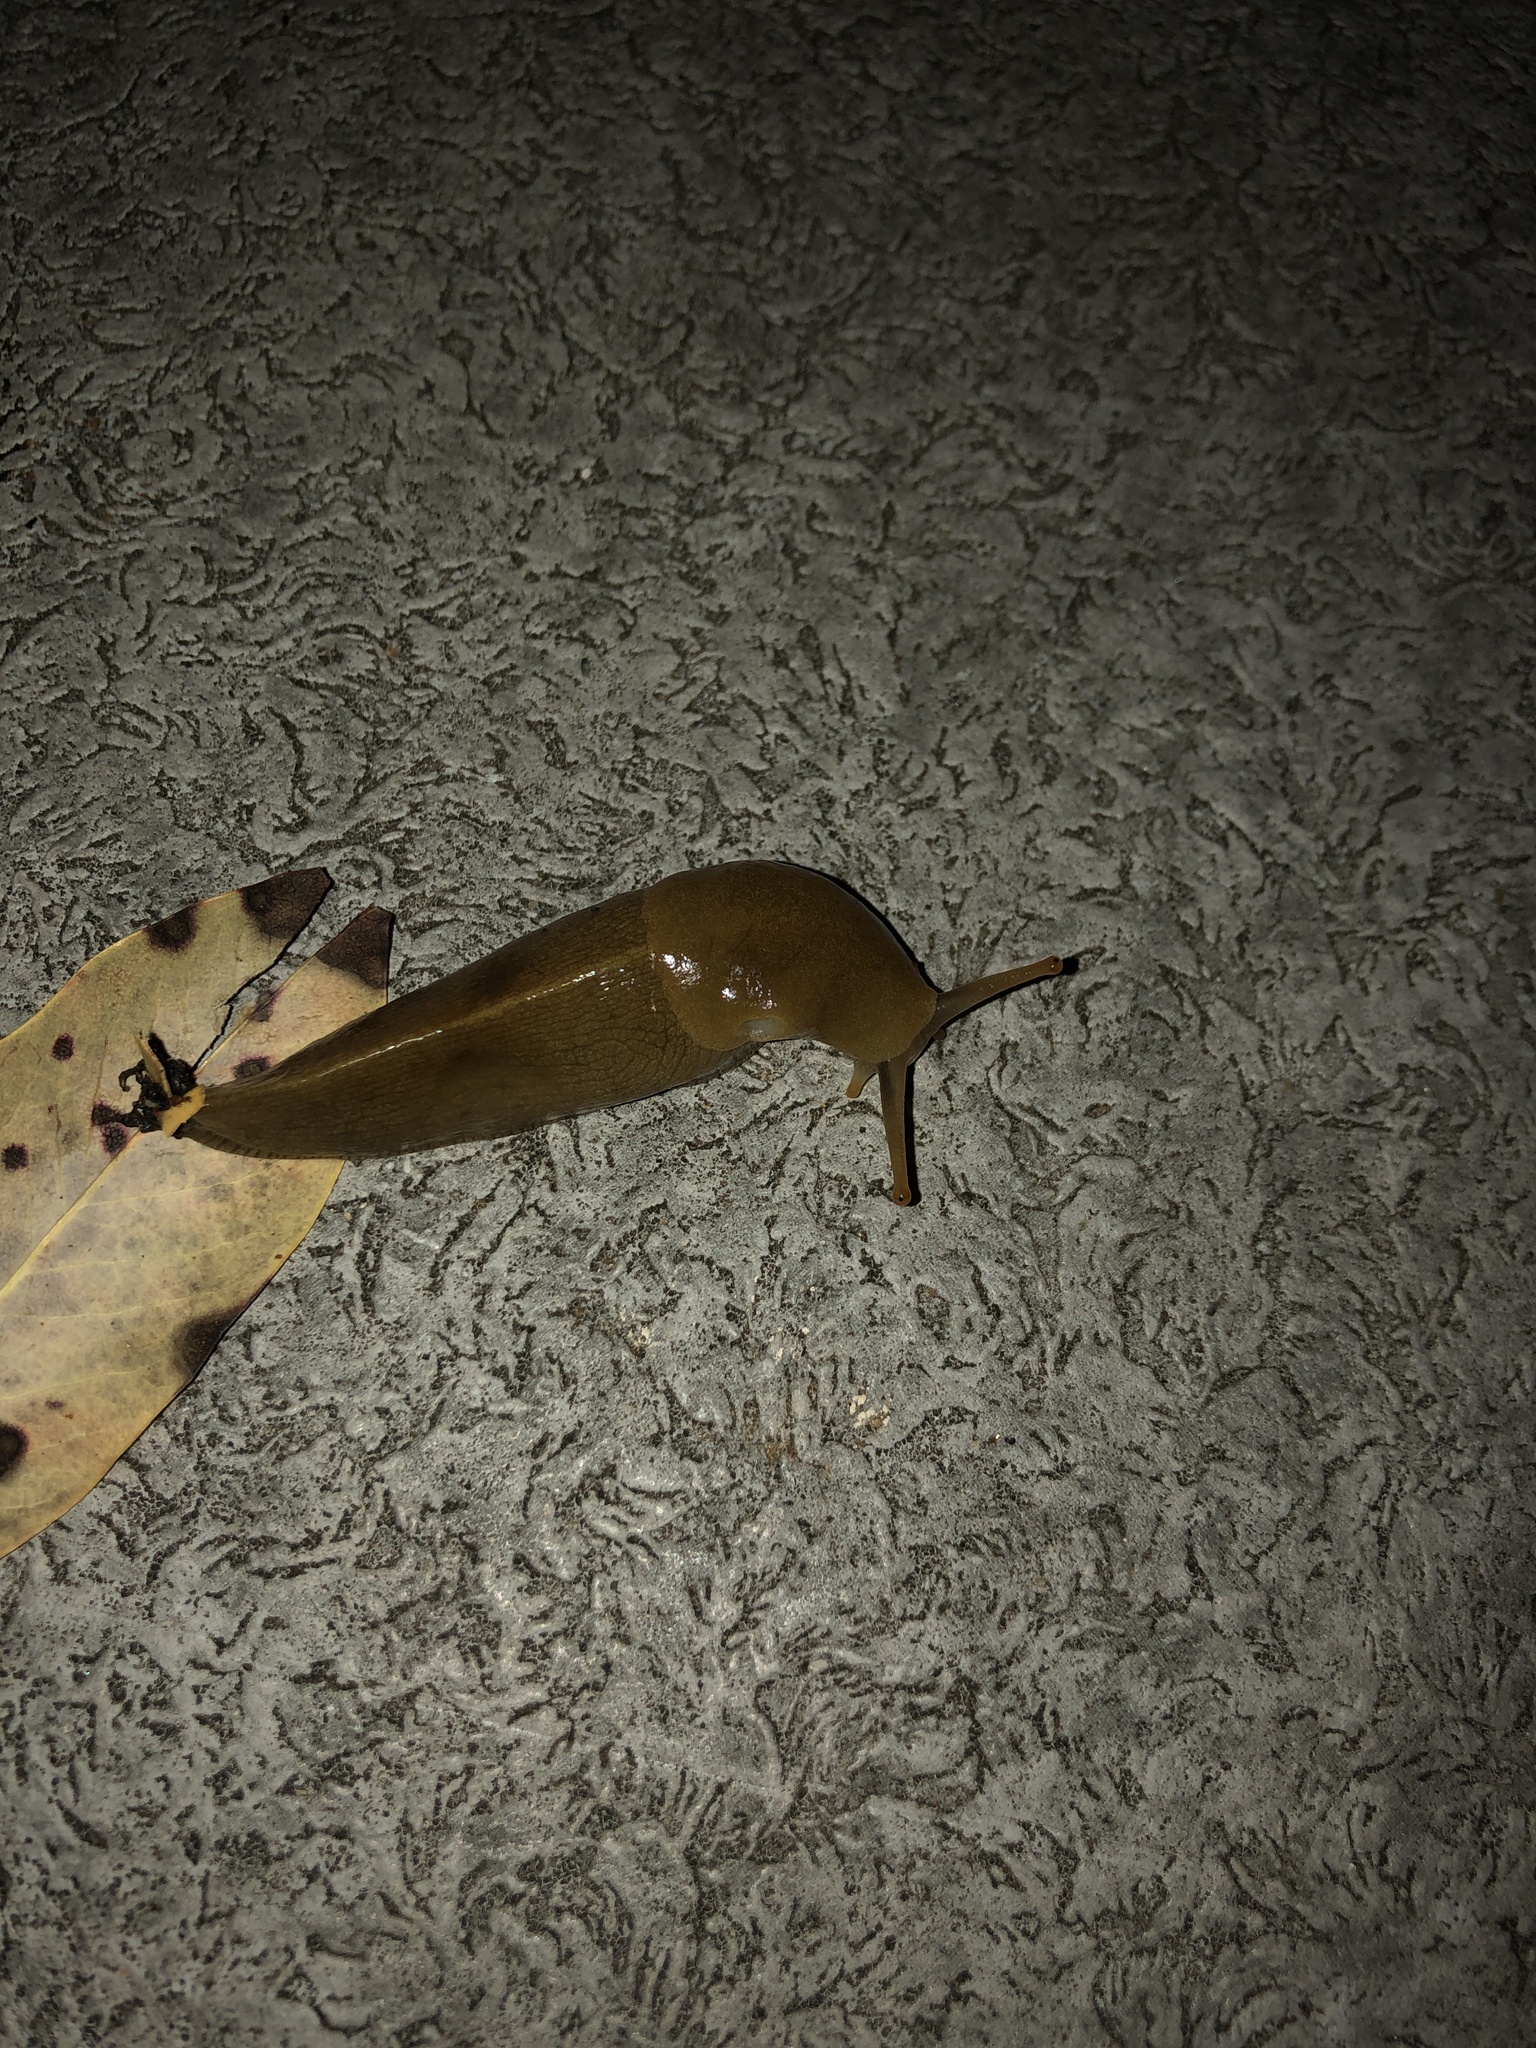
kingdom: Animalia
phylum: Mollusca
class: Gastropoda
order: Stylommatophora
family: Ariolimacidae
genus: Ariolimax
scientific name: Ariolimax columbianus
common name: Pacific banana slug
